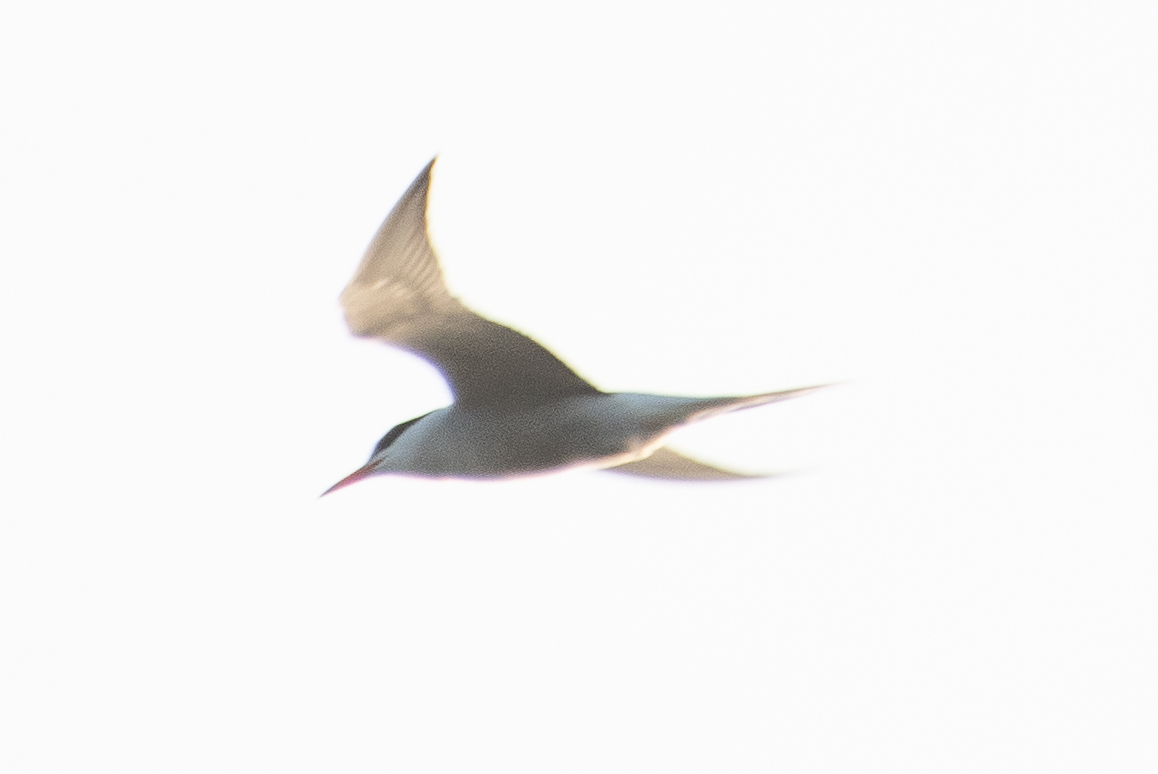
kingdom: Animalia
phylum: Chordata
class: Aves
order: Charadriiformes
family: Laridae
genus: Sterna
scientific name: Sterna hirundo
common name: Common tern
